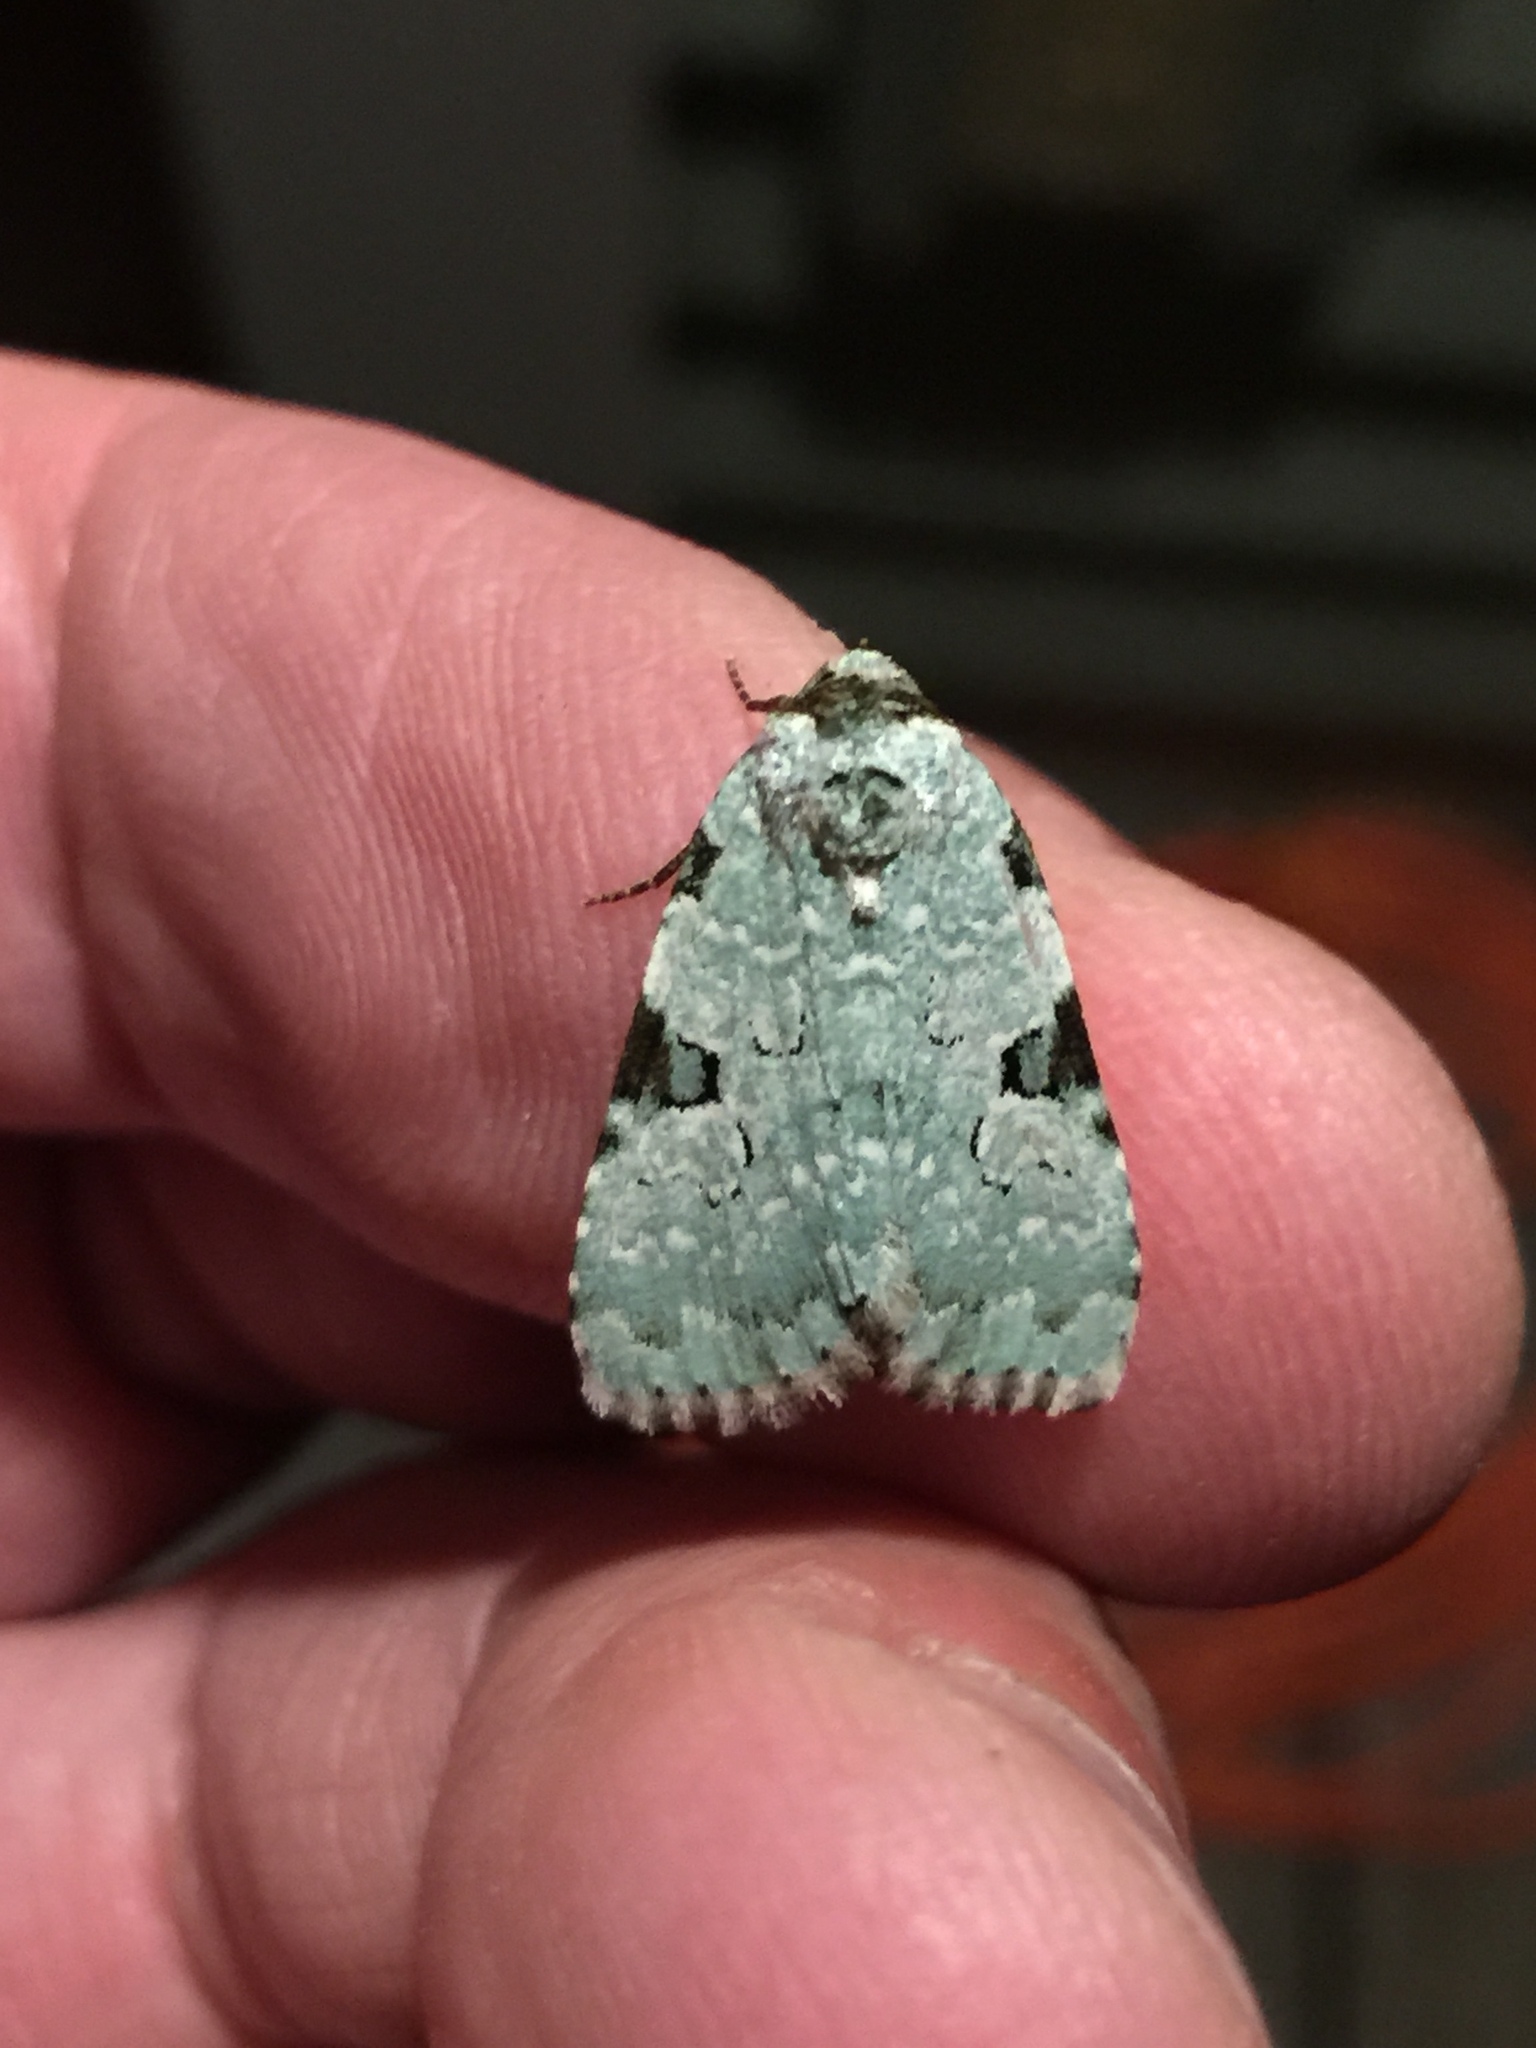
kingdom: Animalia
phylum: Arthropoda
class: Insecta
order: Lepidoptera
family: Noctuidae
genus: Leuconycta
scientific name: Leuconycta diphteroides
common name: Green leuconycta moth
